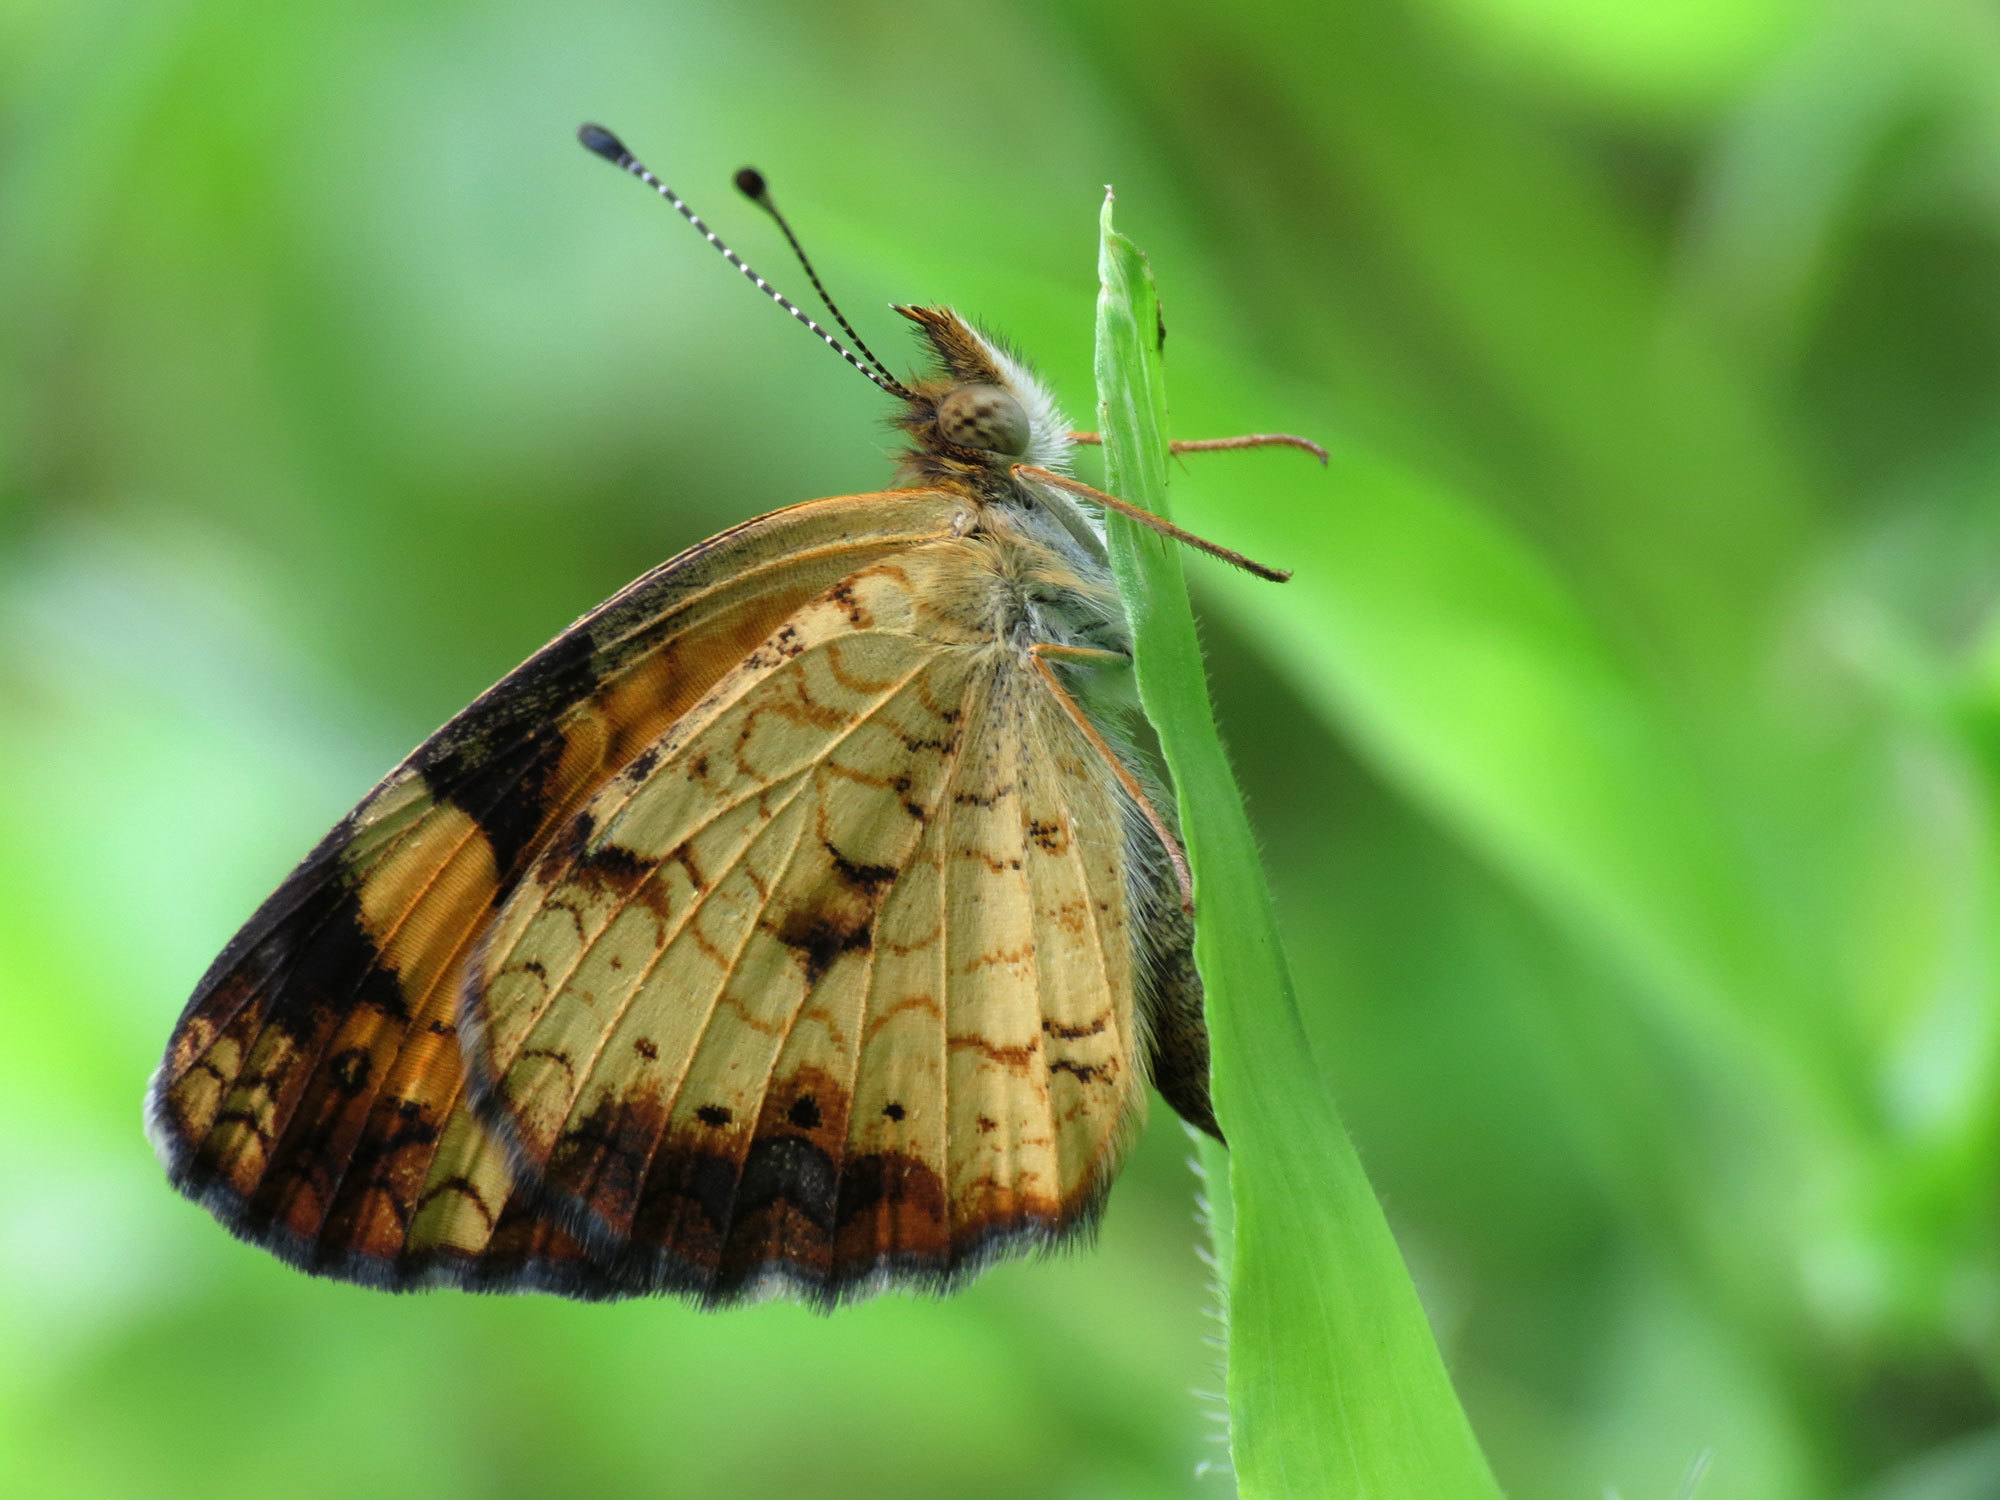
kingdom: Animalia
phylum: Arthropoda
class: Insecta
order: Lepidoptera
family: Nymphalidae
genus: Phyciodes
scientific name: Phyciodes tharos
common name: Pearl crescent
